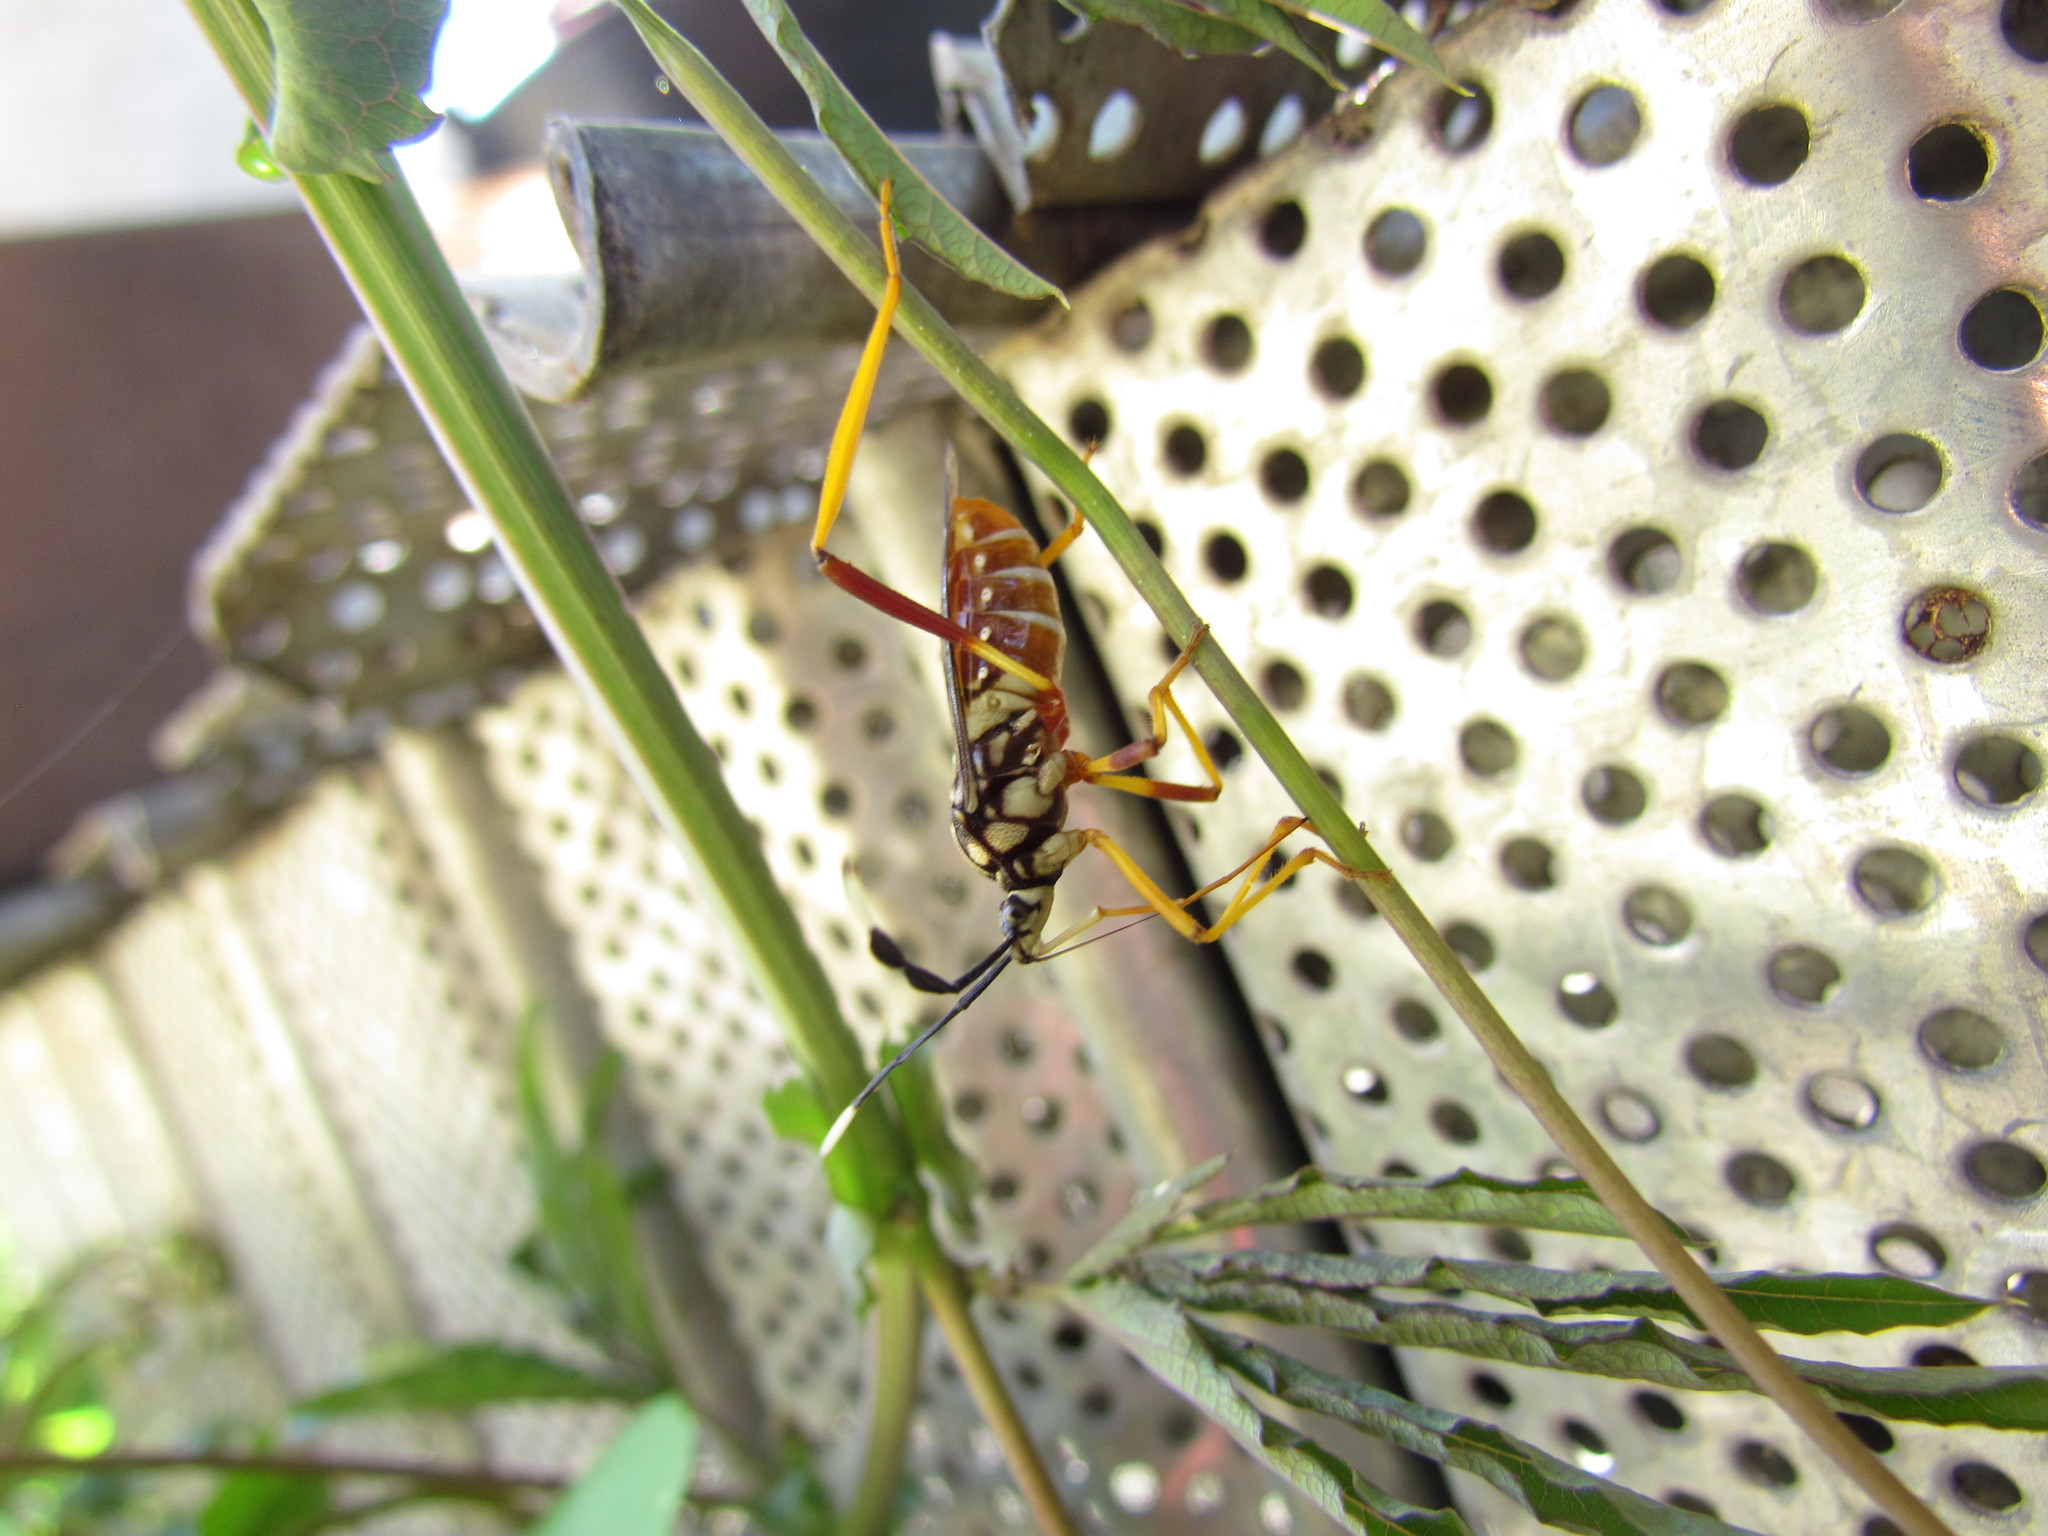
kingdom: Animalia
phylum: Arthropoda
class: Insecta
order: Hemiptera
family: Coreidae
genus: Holhymenia
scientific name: Holhymenia histrio
